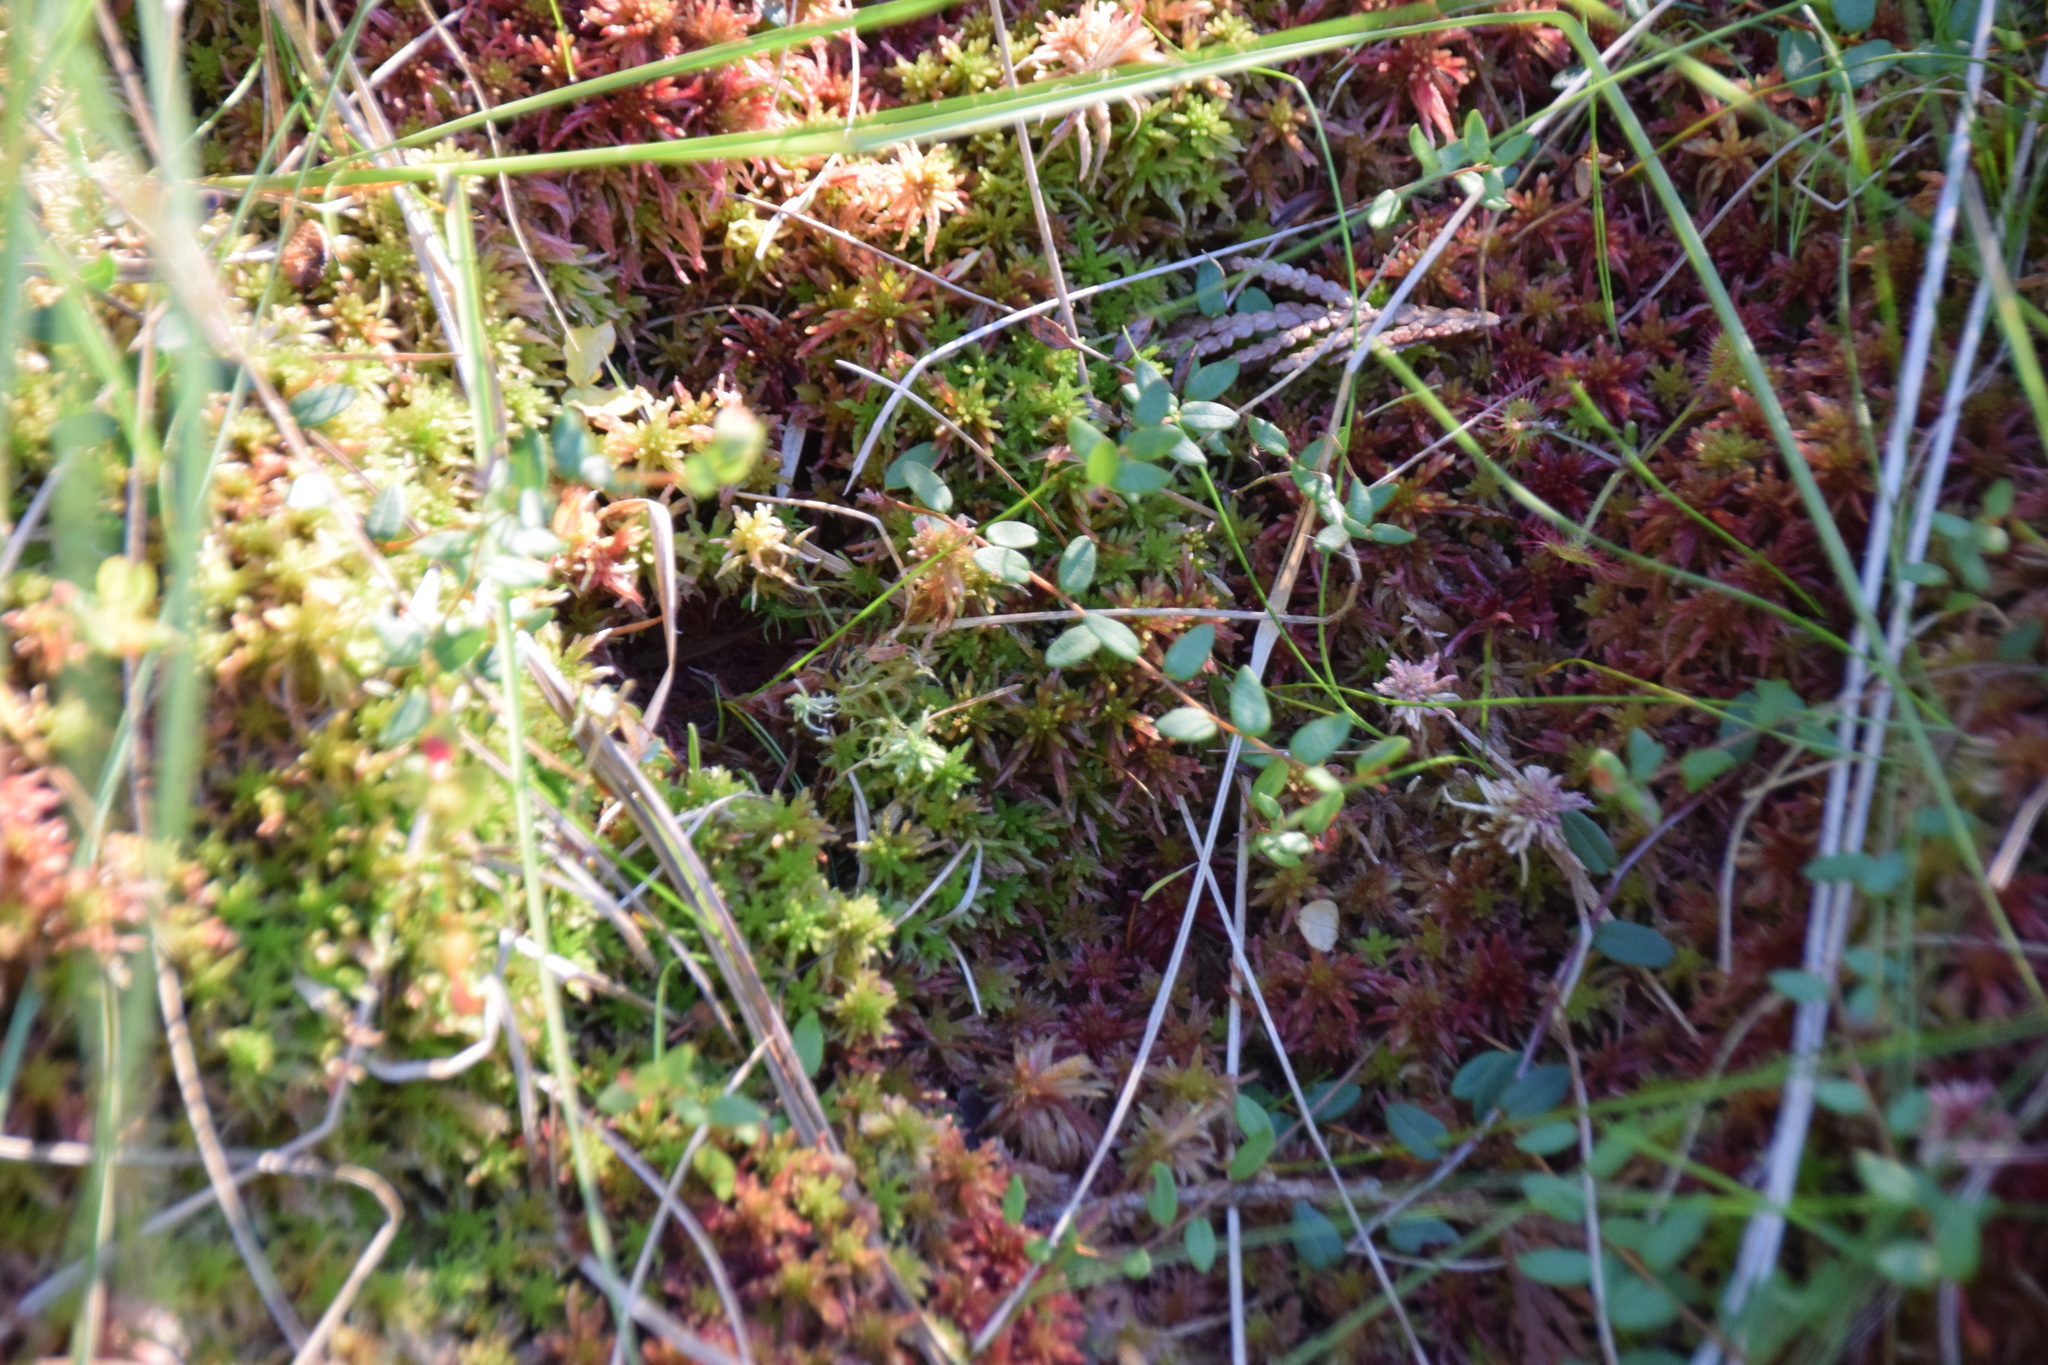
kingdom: Plantae
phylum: Tracheophyta
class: Magnoliopsida
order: Ericales
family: Ericaceae
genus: Vaccinium
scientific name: Vaccinium oxycoccos
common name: Cranberry
